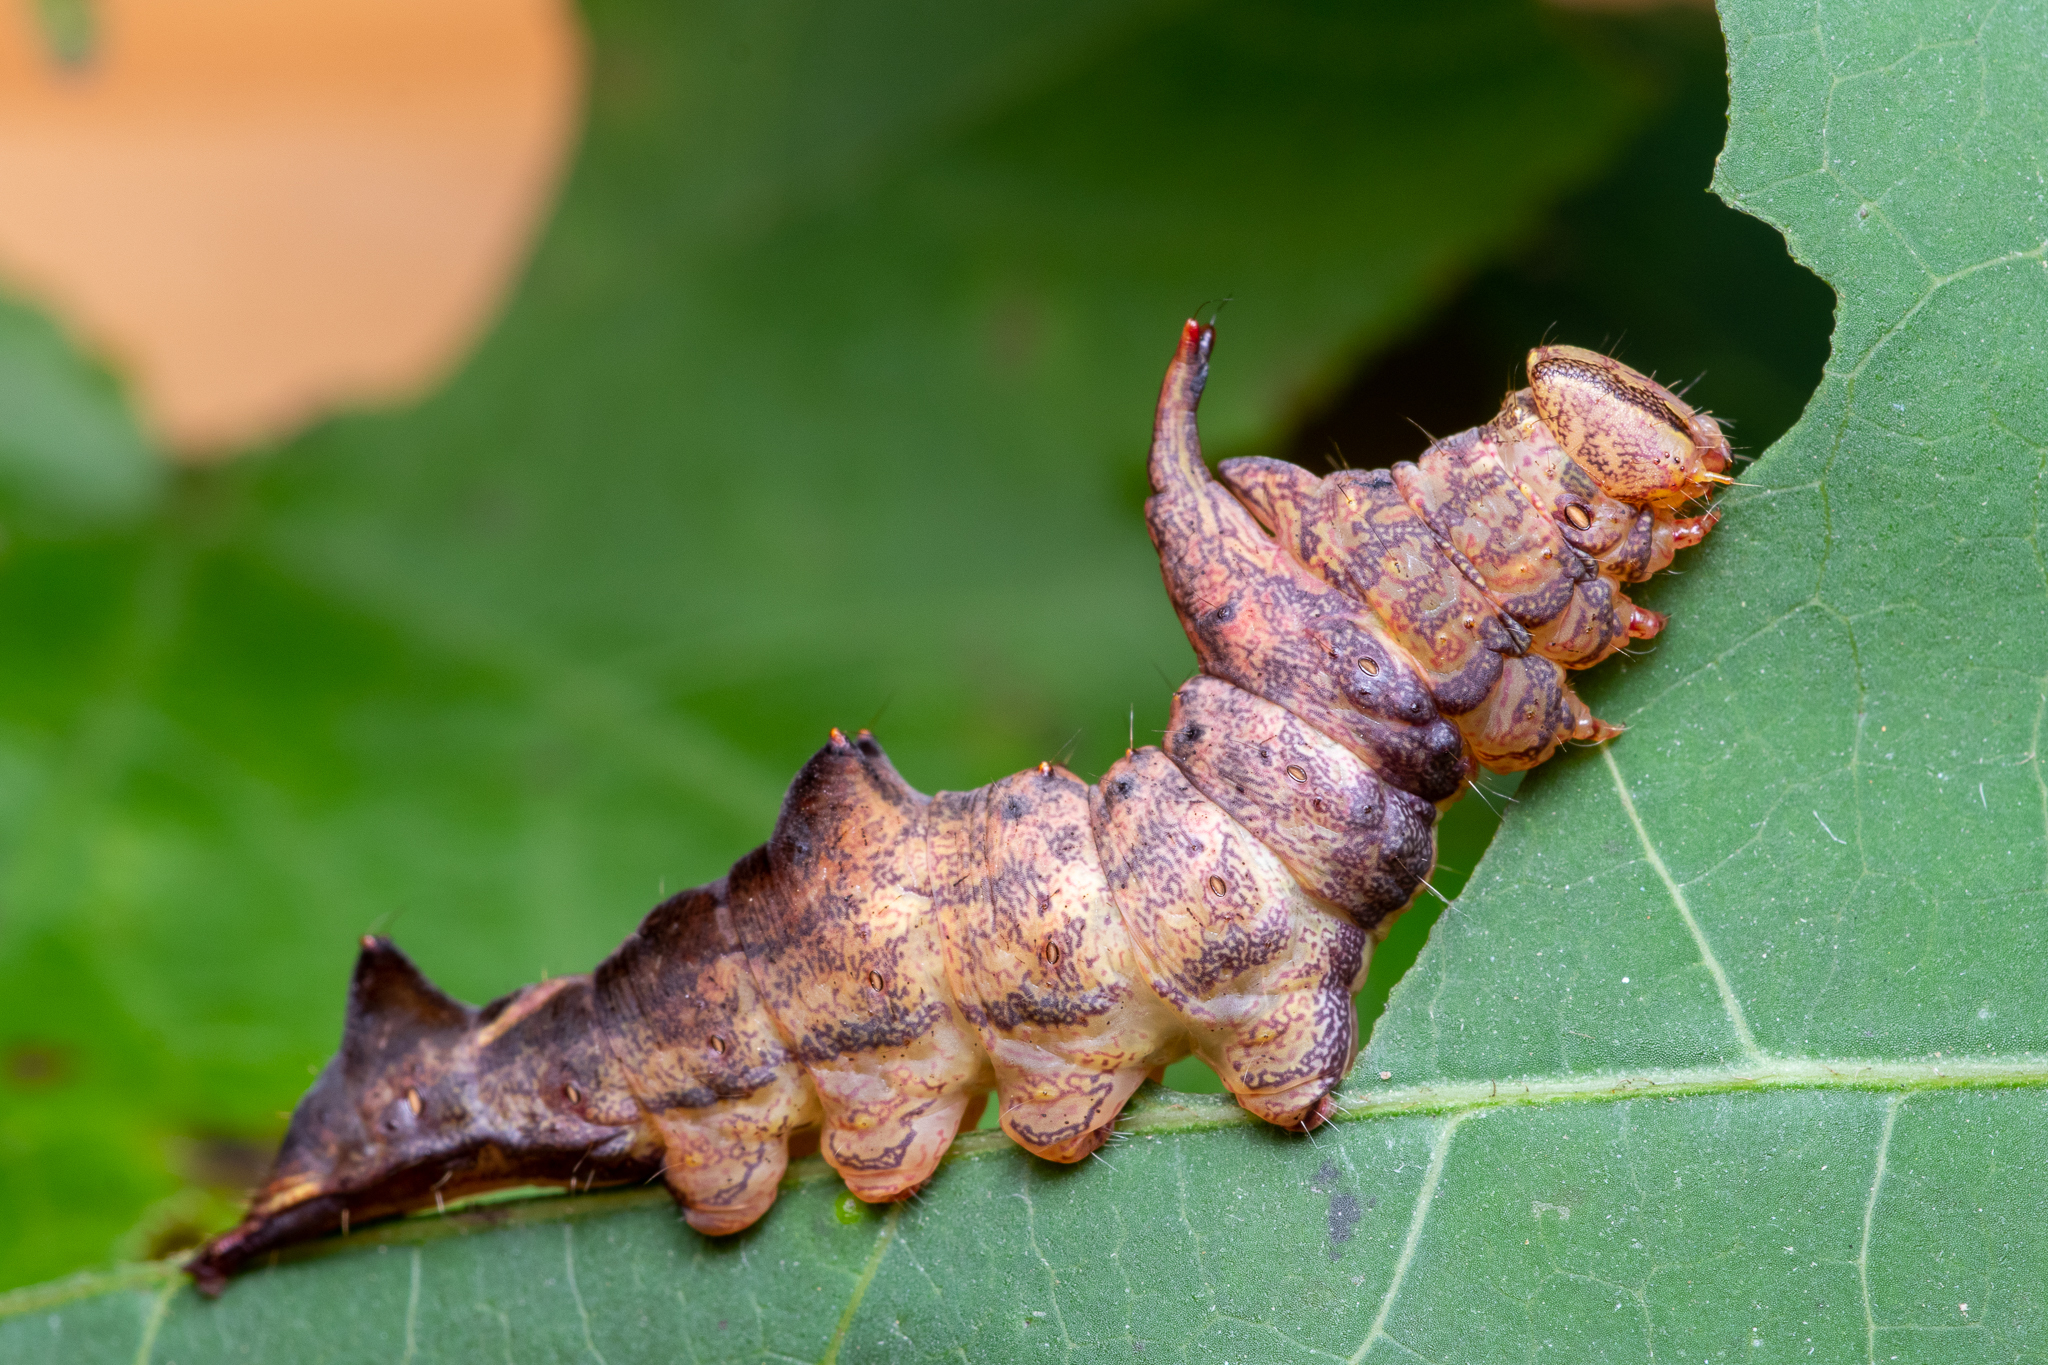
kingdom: Animalia
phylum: Arthropoda
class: Insecta
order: Lepidoptera
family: Notodontidae
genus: Schizura
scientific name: Schizura
